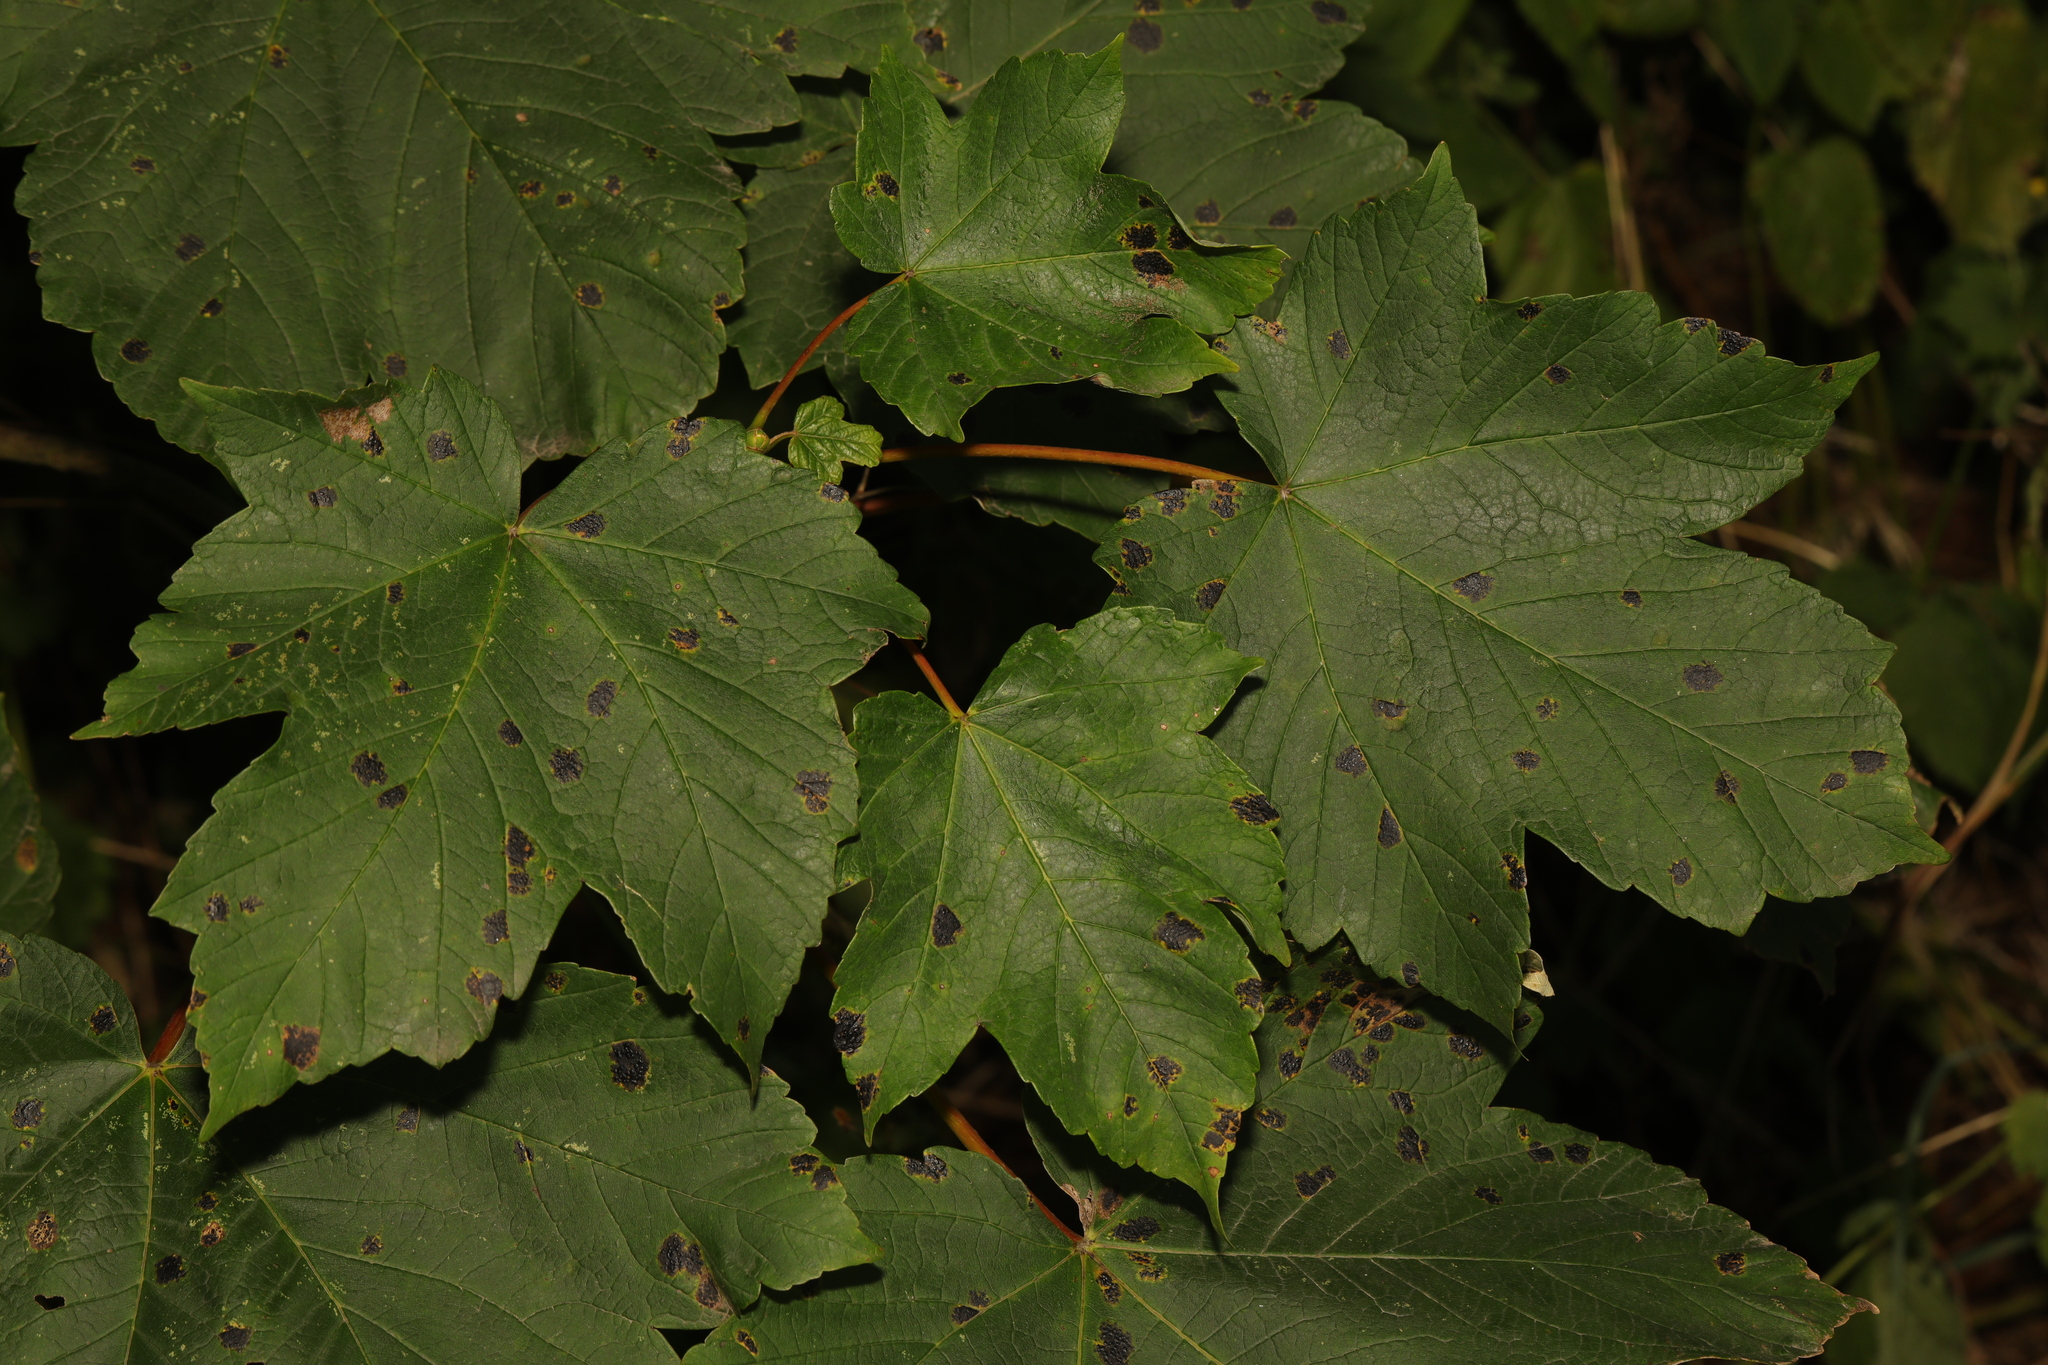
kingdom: Plantae
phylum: Tracheophyta
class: Magnoliopsida
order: Sapindales
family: Sapindaceae
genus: Acer
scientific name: Acer pseudoplatanus
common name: Sycamore
